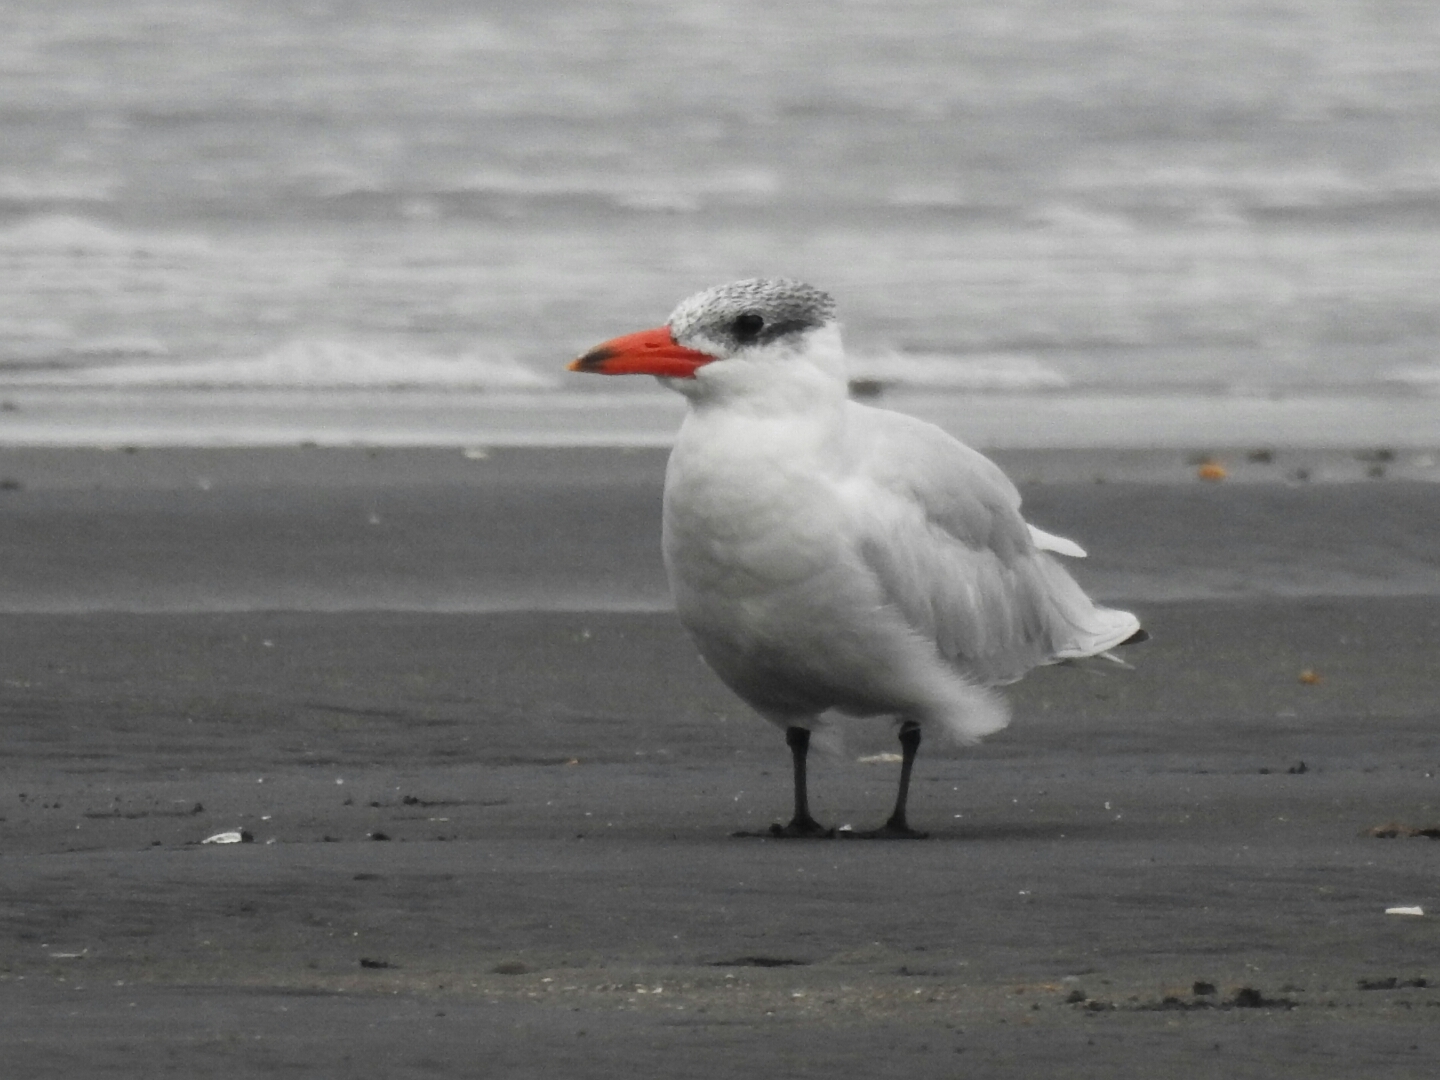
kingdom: Animalia
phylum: Chordata
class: Aves
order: Charadriiformes
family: Laridae
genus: Hydroprogne
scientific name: Hydroprogne caspia
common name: Caspian tern
